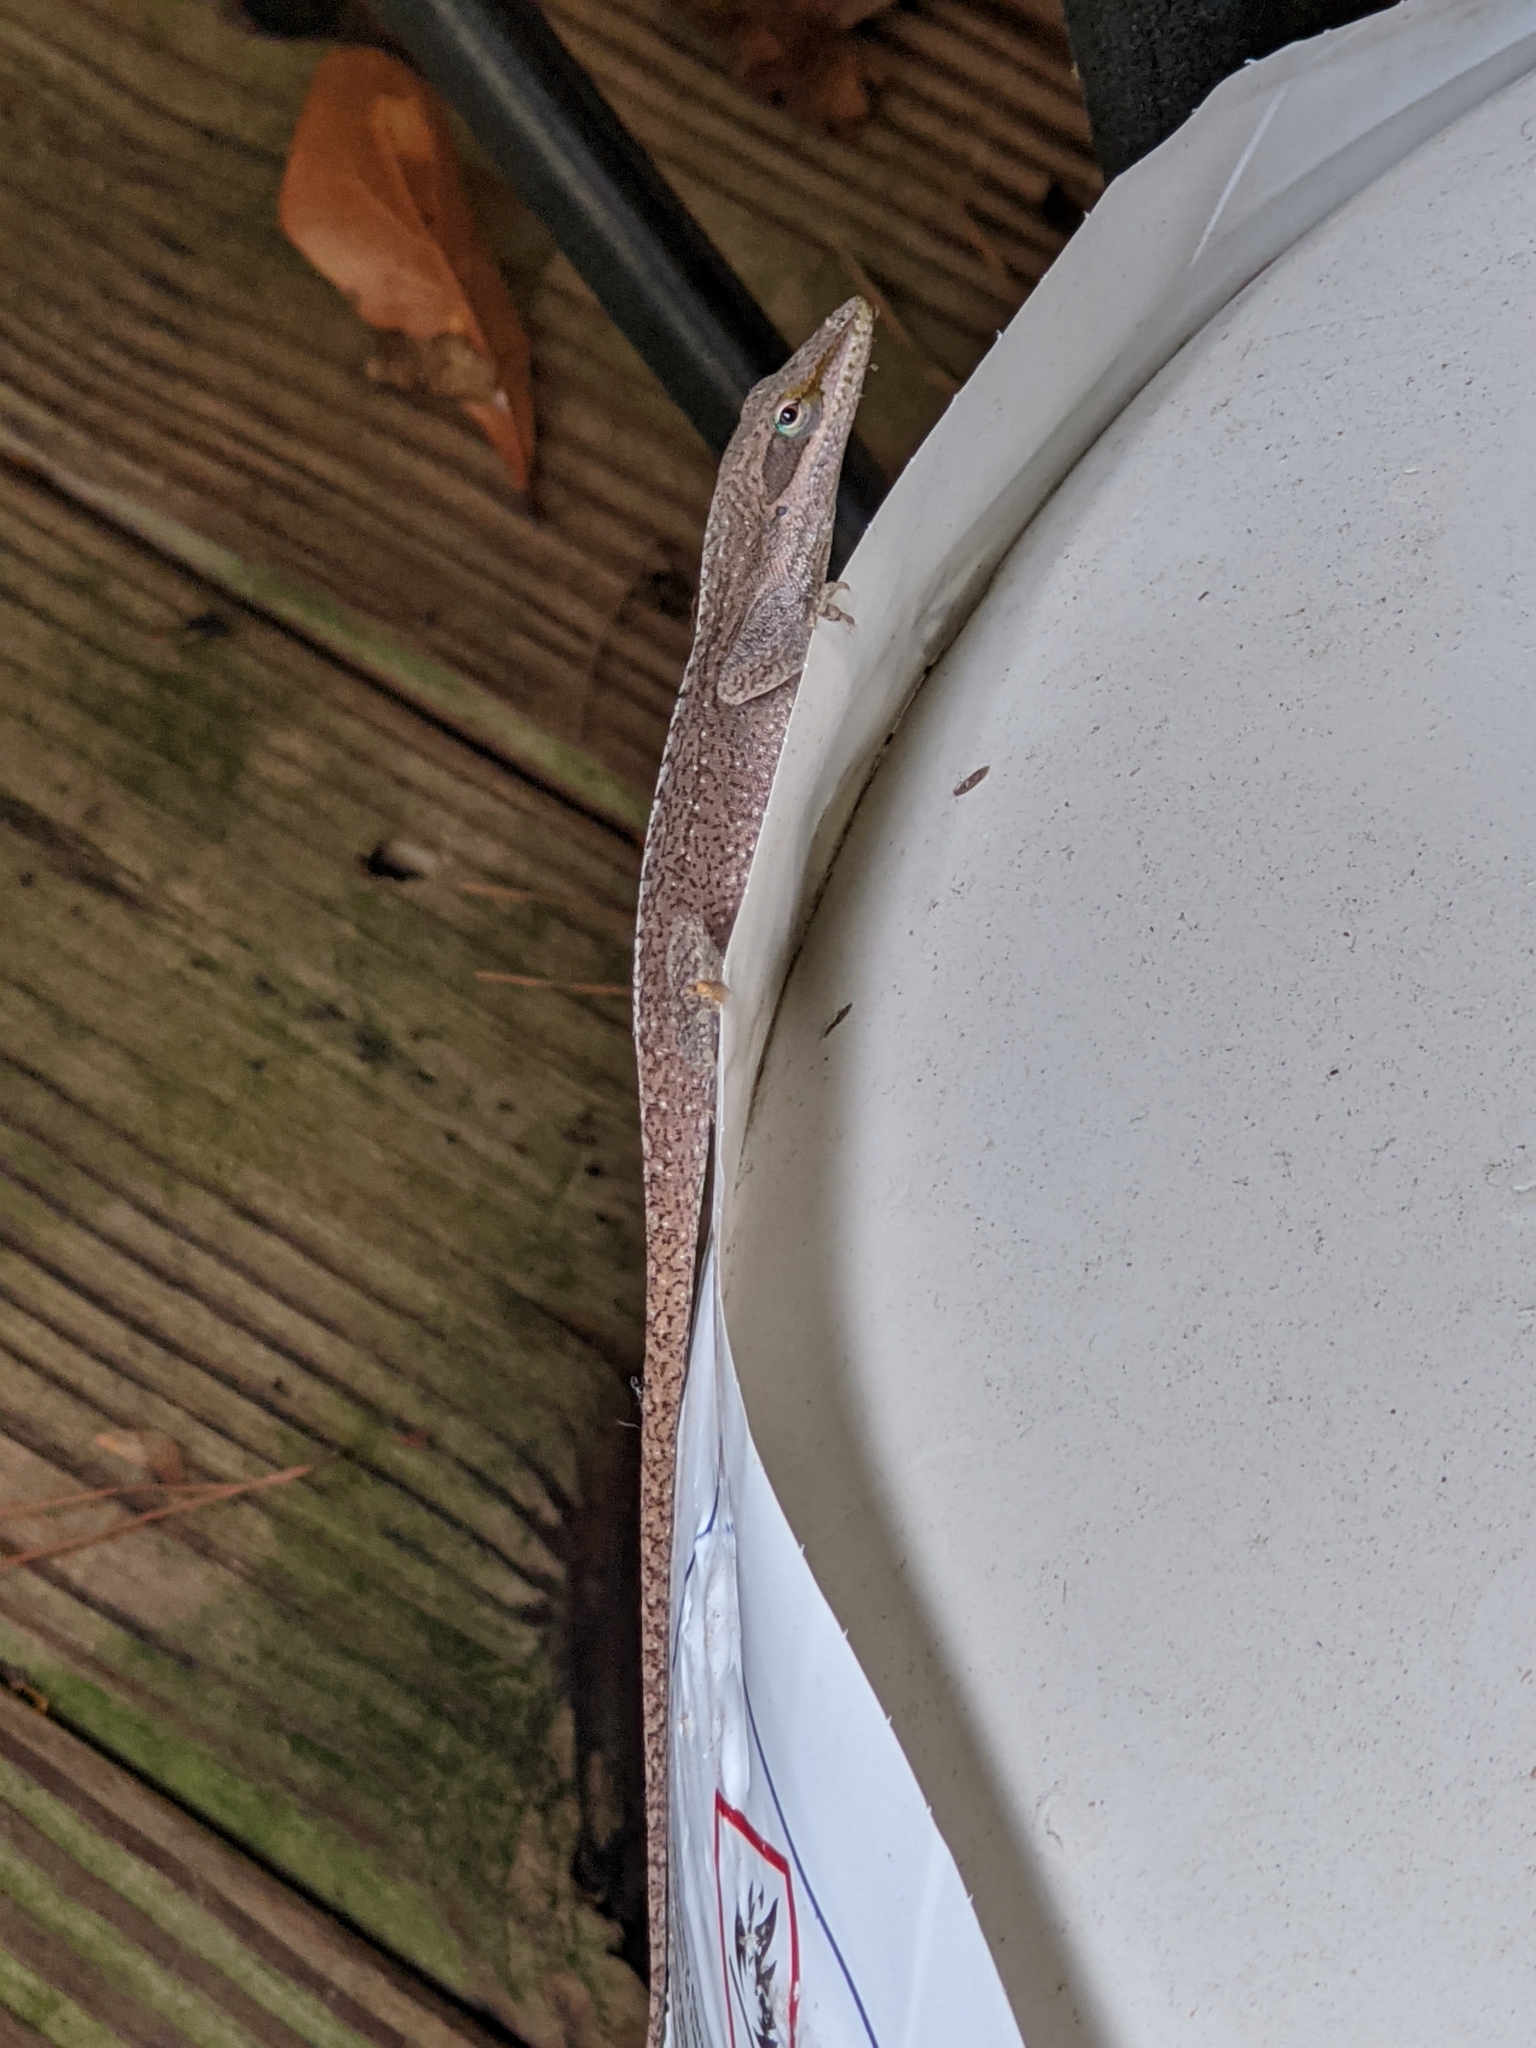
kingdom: Animalia
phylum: Chordata
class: Squamata
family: Dactyloidae
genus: Anolis
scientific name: Anolis carolinensis
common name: Green anole
